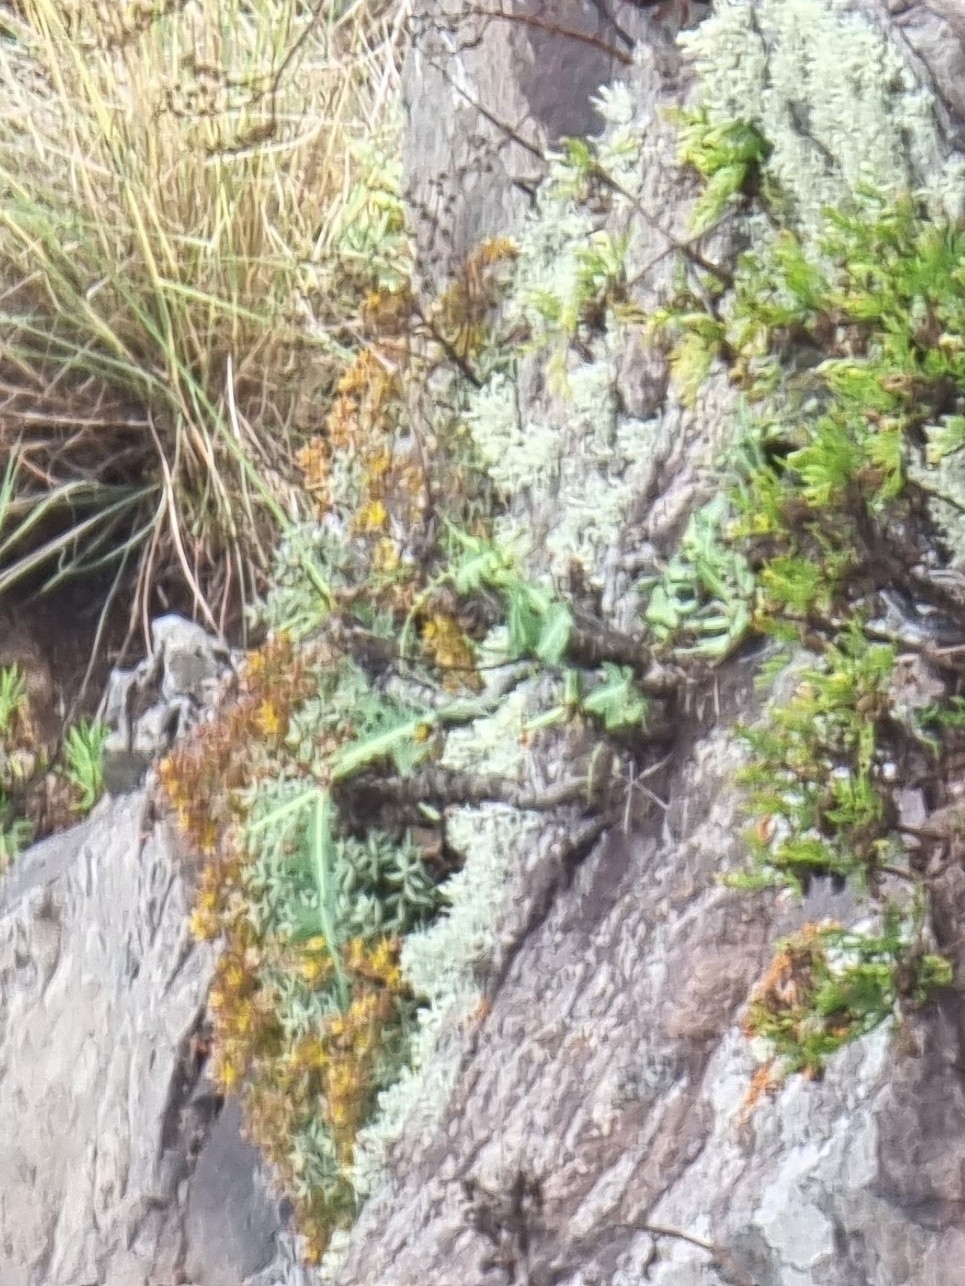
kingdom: Plantae
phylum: Tracheophyta
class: Magnoliopsida
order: Asterales
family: Asteraceae
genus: Sonchus
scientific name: Sonchus ustulatus
